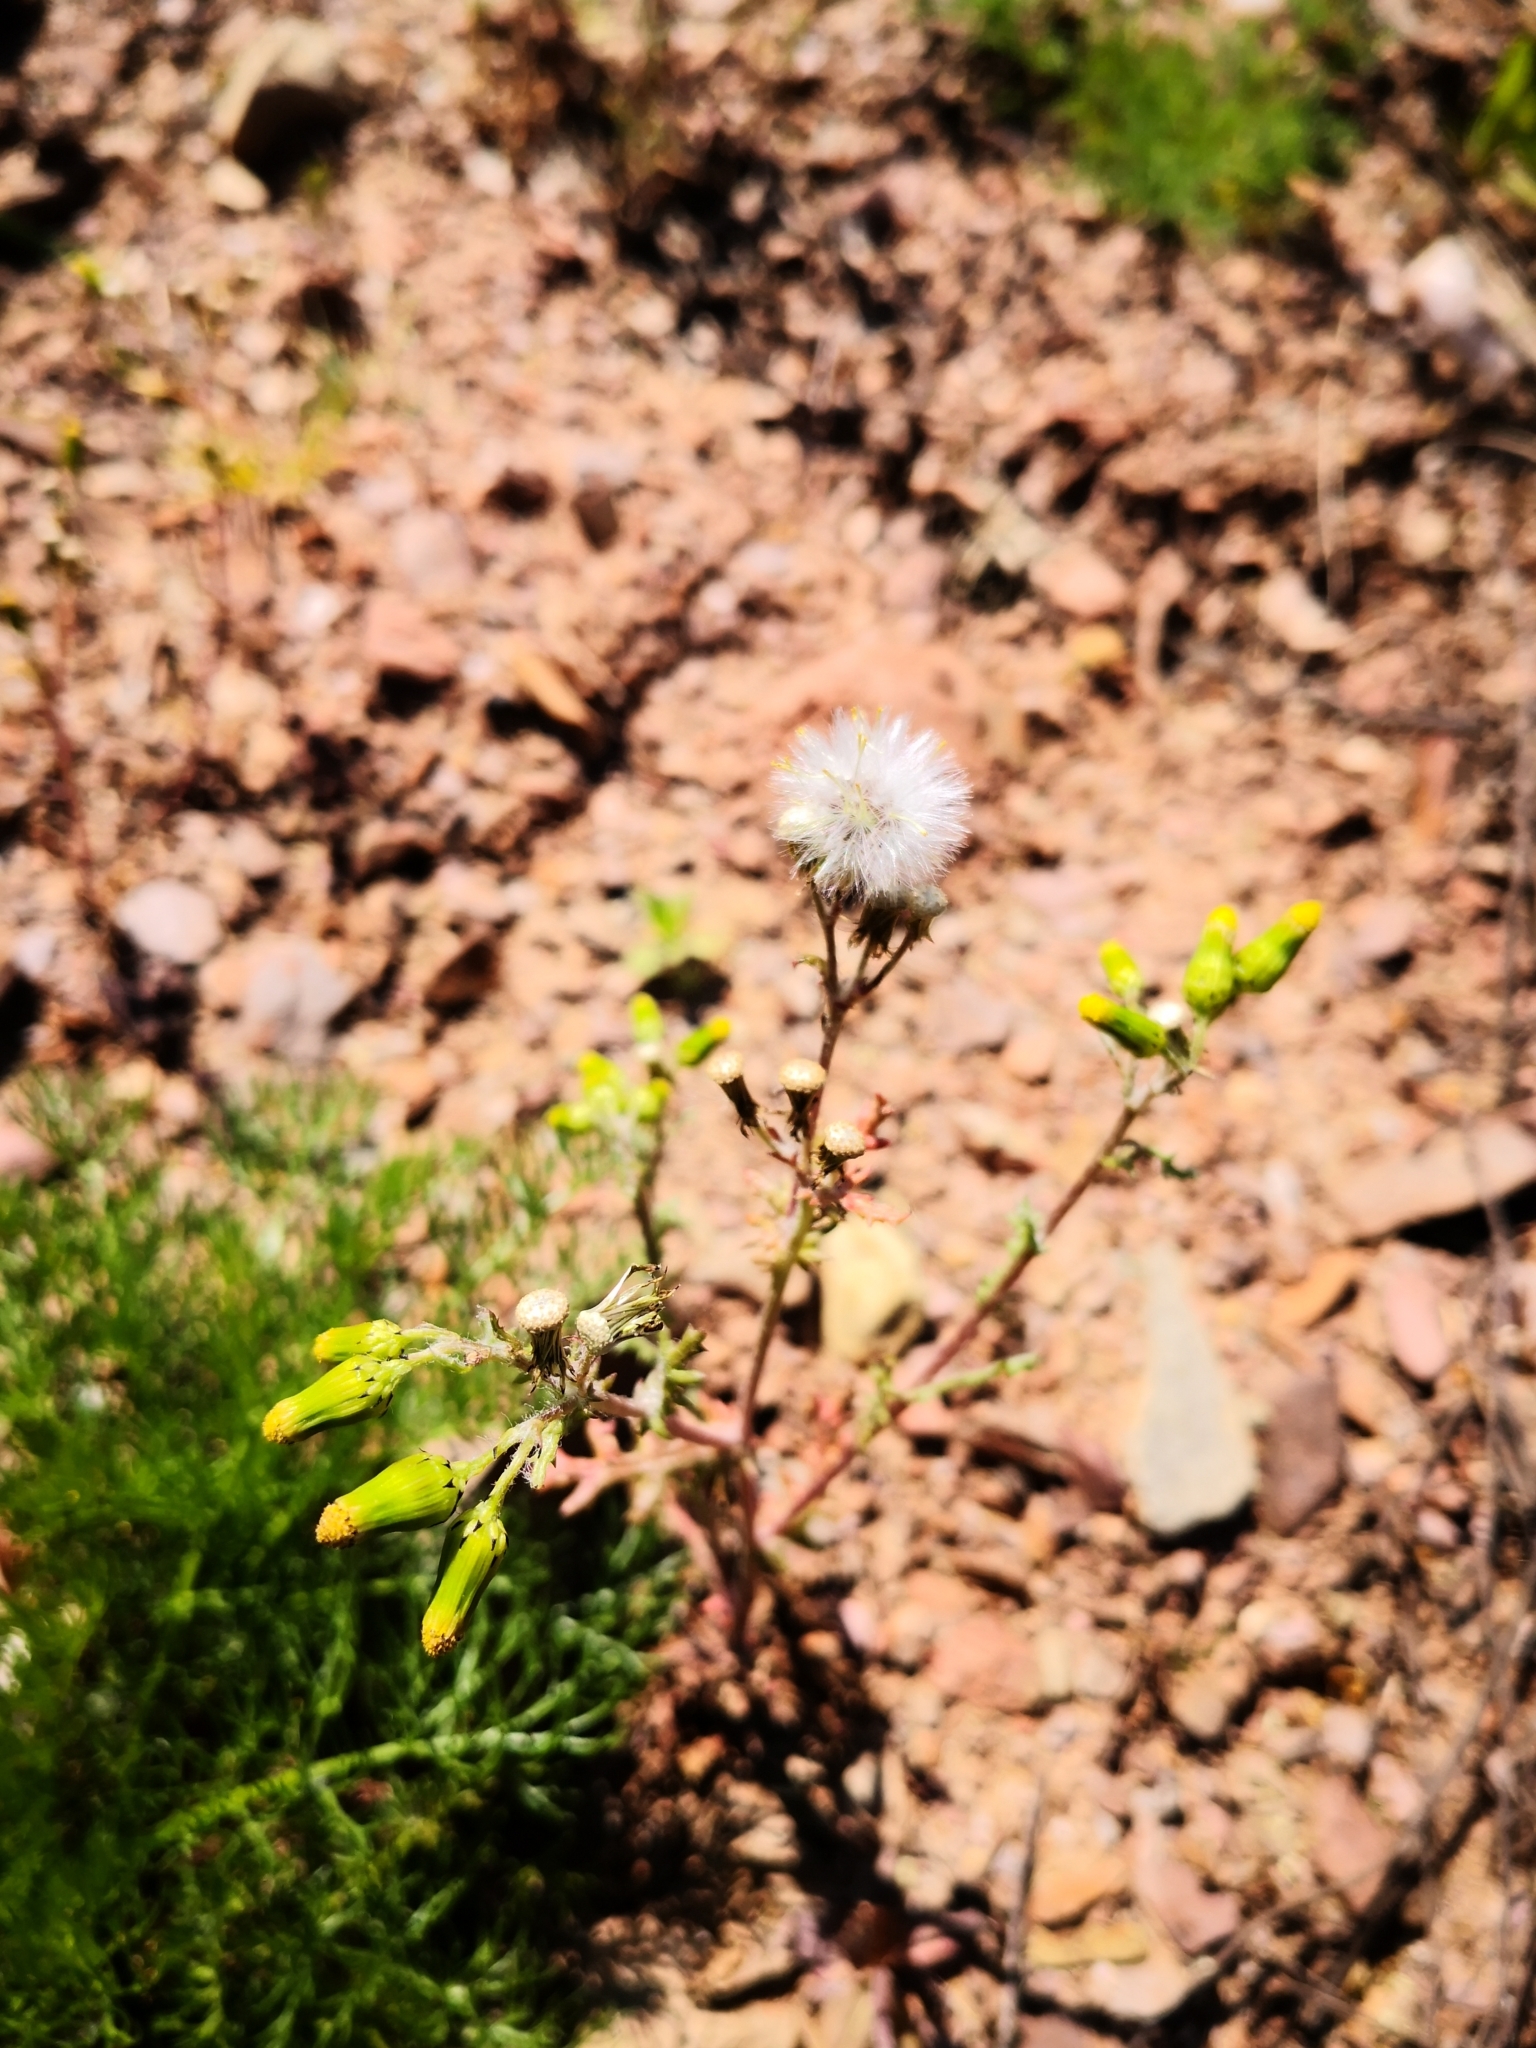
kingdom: Plantae
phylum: Tracheophyta
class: Magnoliopsida
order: Asterales
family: Asteraceae
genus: Senecio
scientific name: Senecio vulgaris
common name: Old-man-in-the-spring
